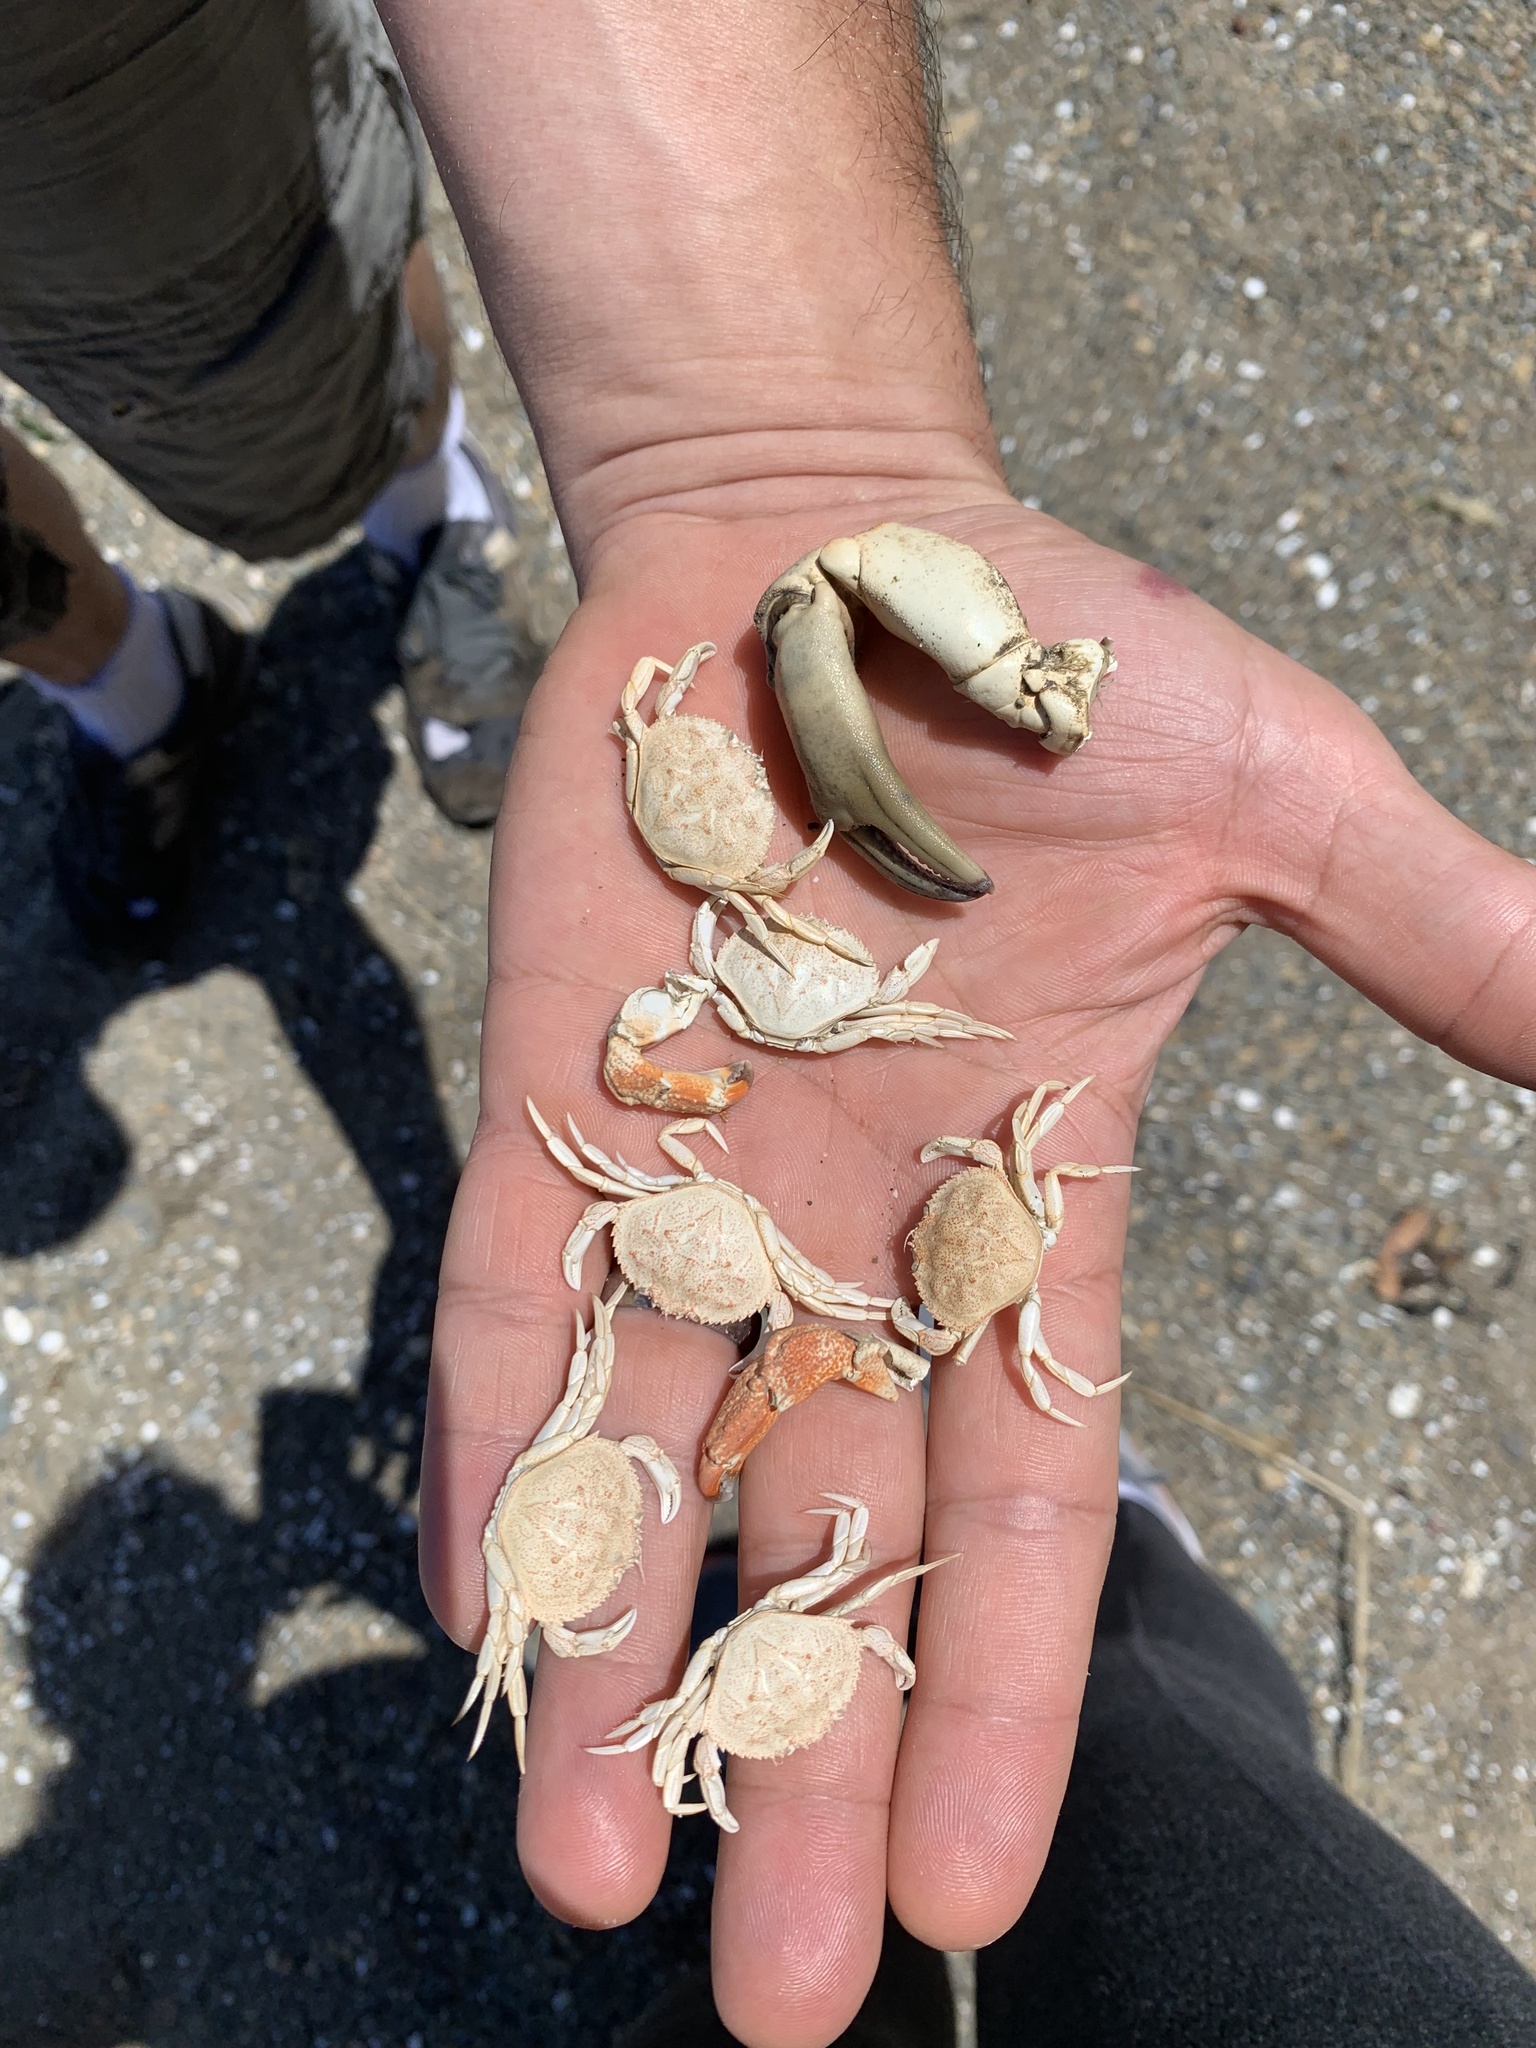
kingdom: Animalia
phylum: Arthropoda
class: Malacostraca
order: Decapoda
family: Cancridae
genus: Metacarcinus
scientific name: Metacarcinus magister
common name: Californian crab
